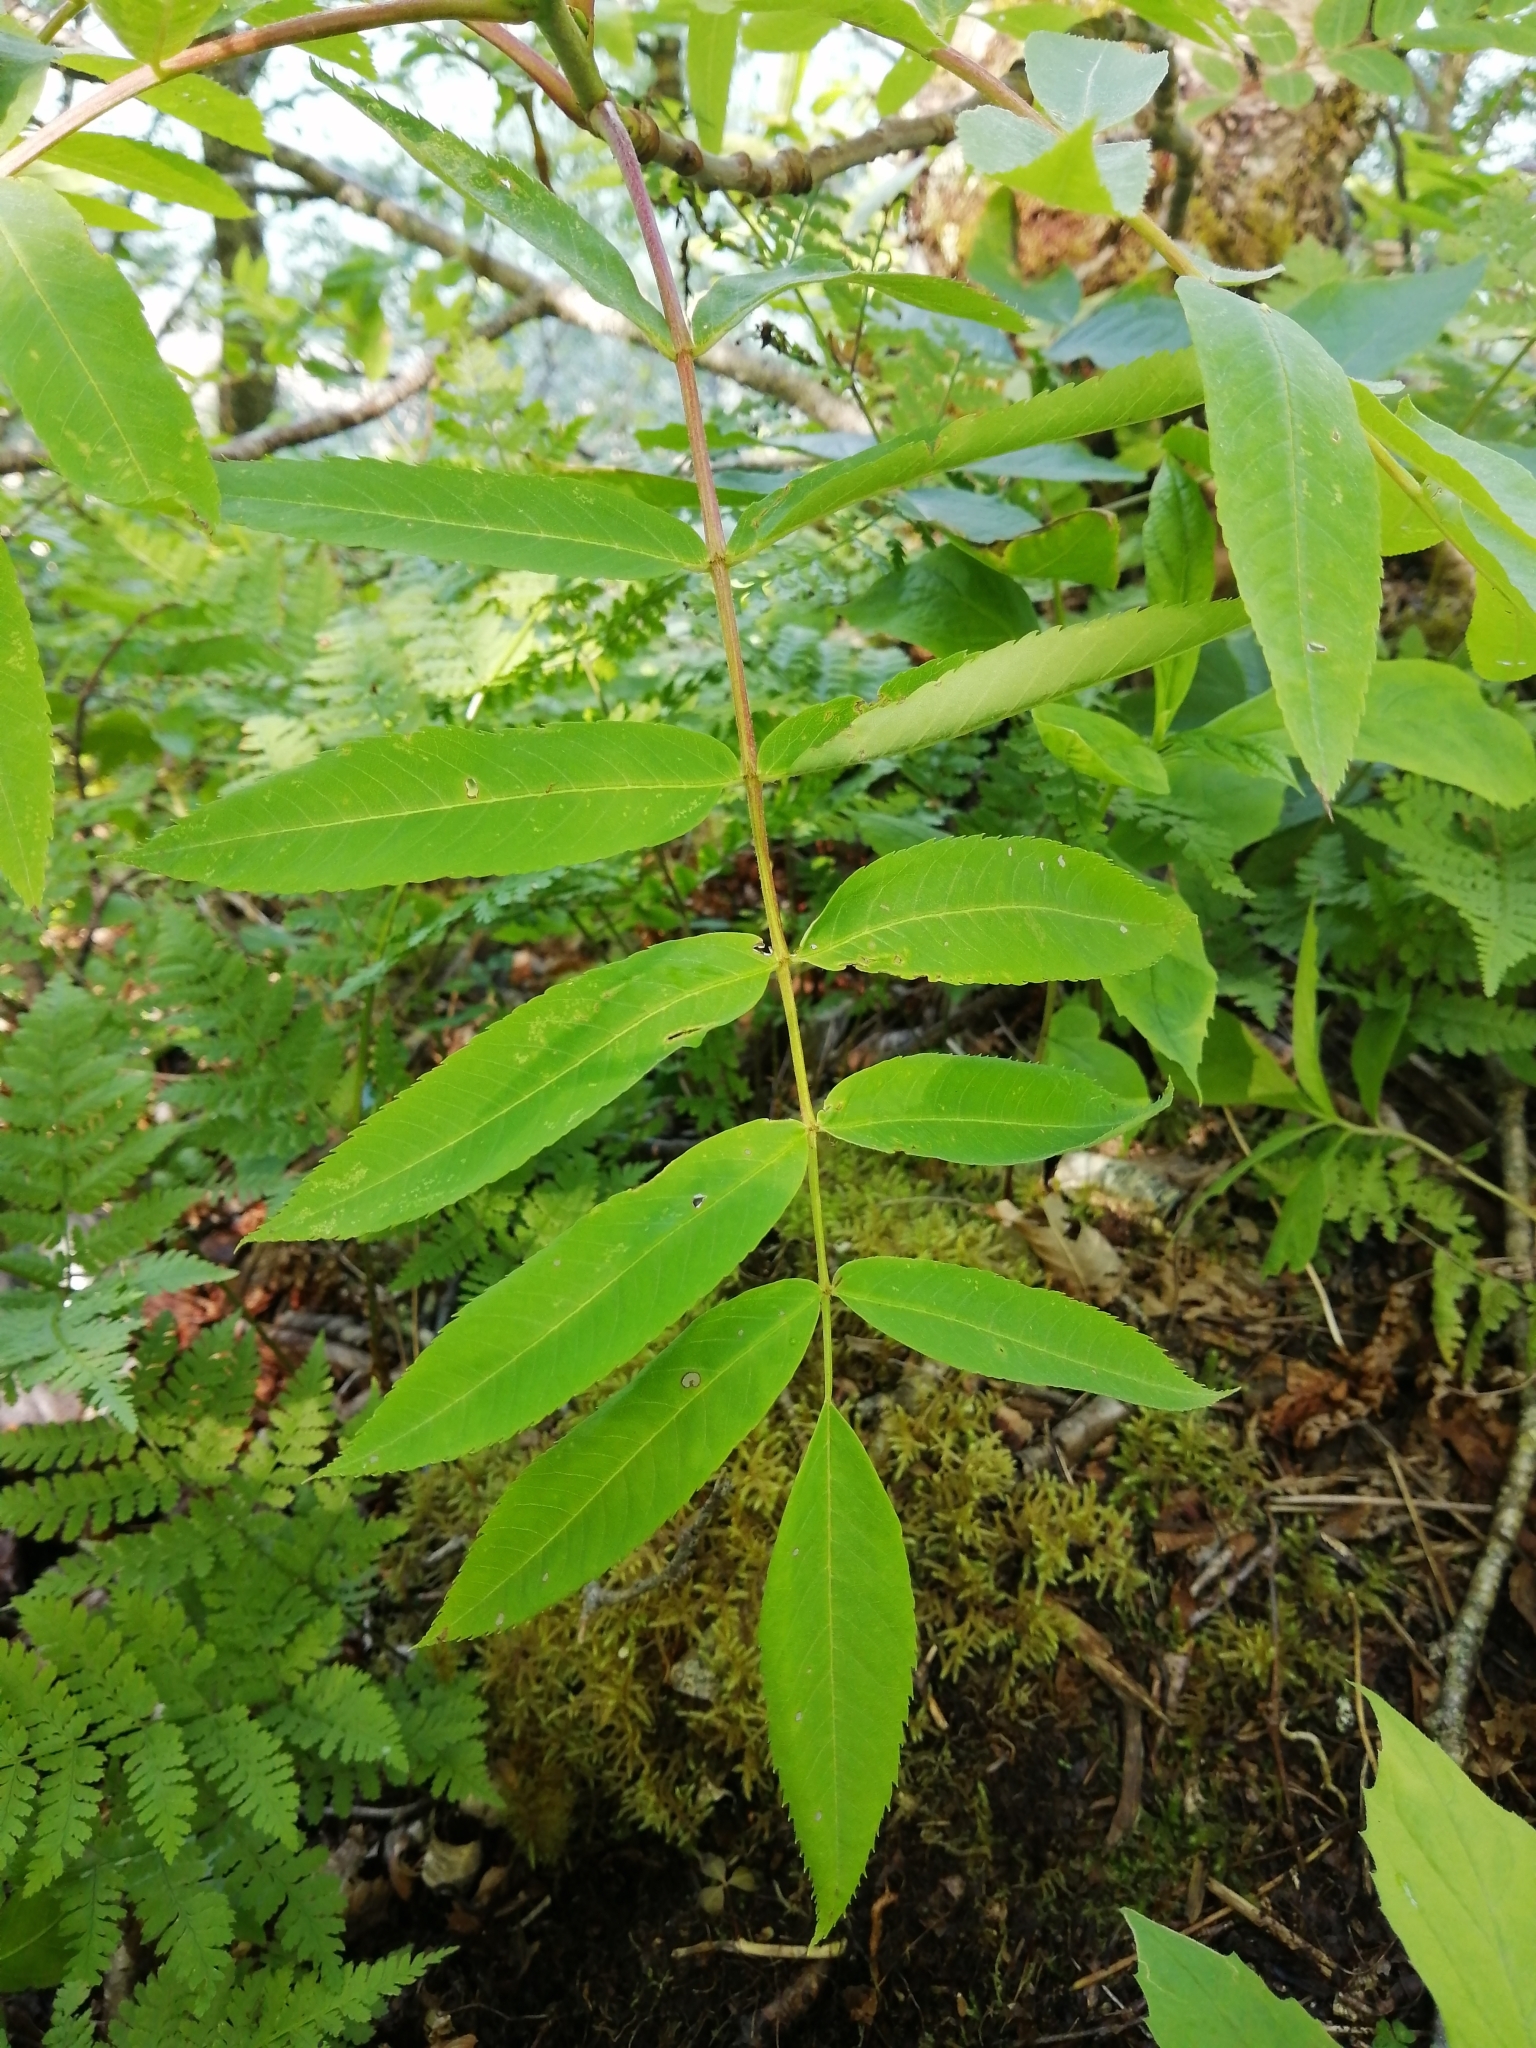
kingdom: Plantae
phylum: Tracheophyta
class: Magnoliopsida
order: Rosales
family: Rosaceae
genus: Sorbus
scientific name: Sorbus americana
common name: American mountain-ash
